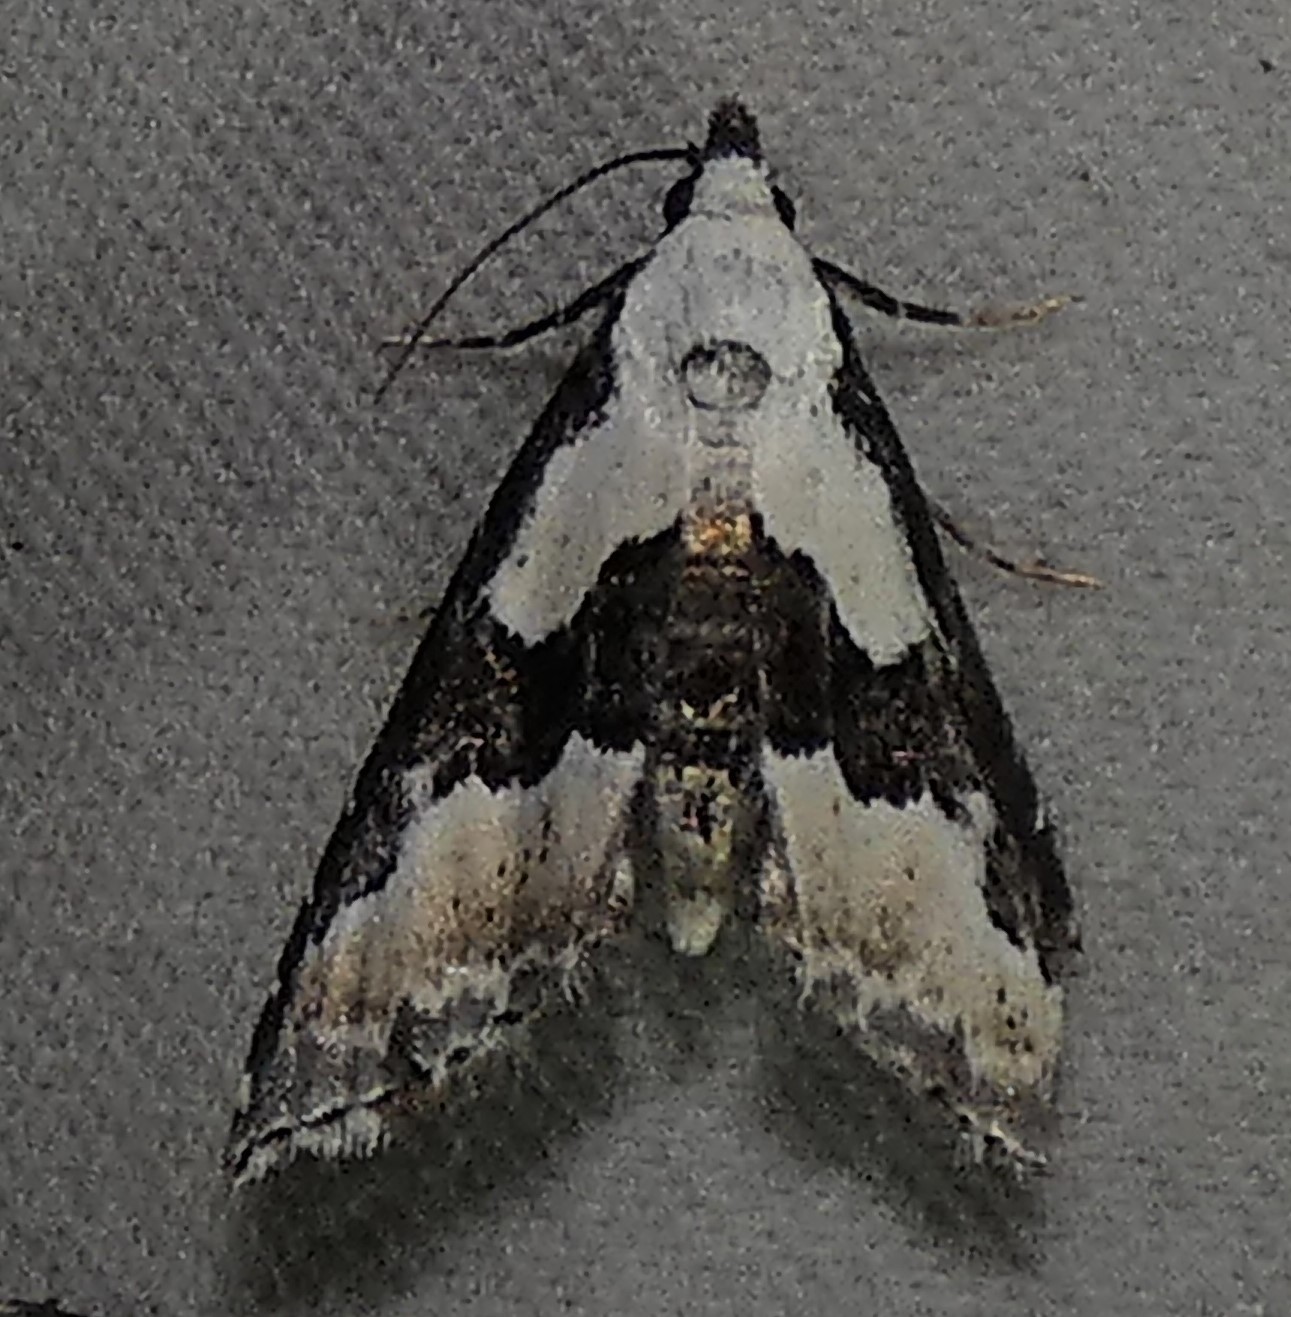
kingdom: Animalia
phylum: Arthropoda
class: Insecta
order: Lepidoptera
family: Noctuidae
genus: Nigetia
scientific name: Nigetia formosalis
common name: Thin-winged owlet
